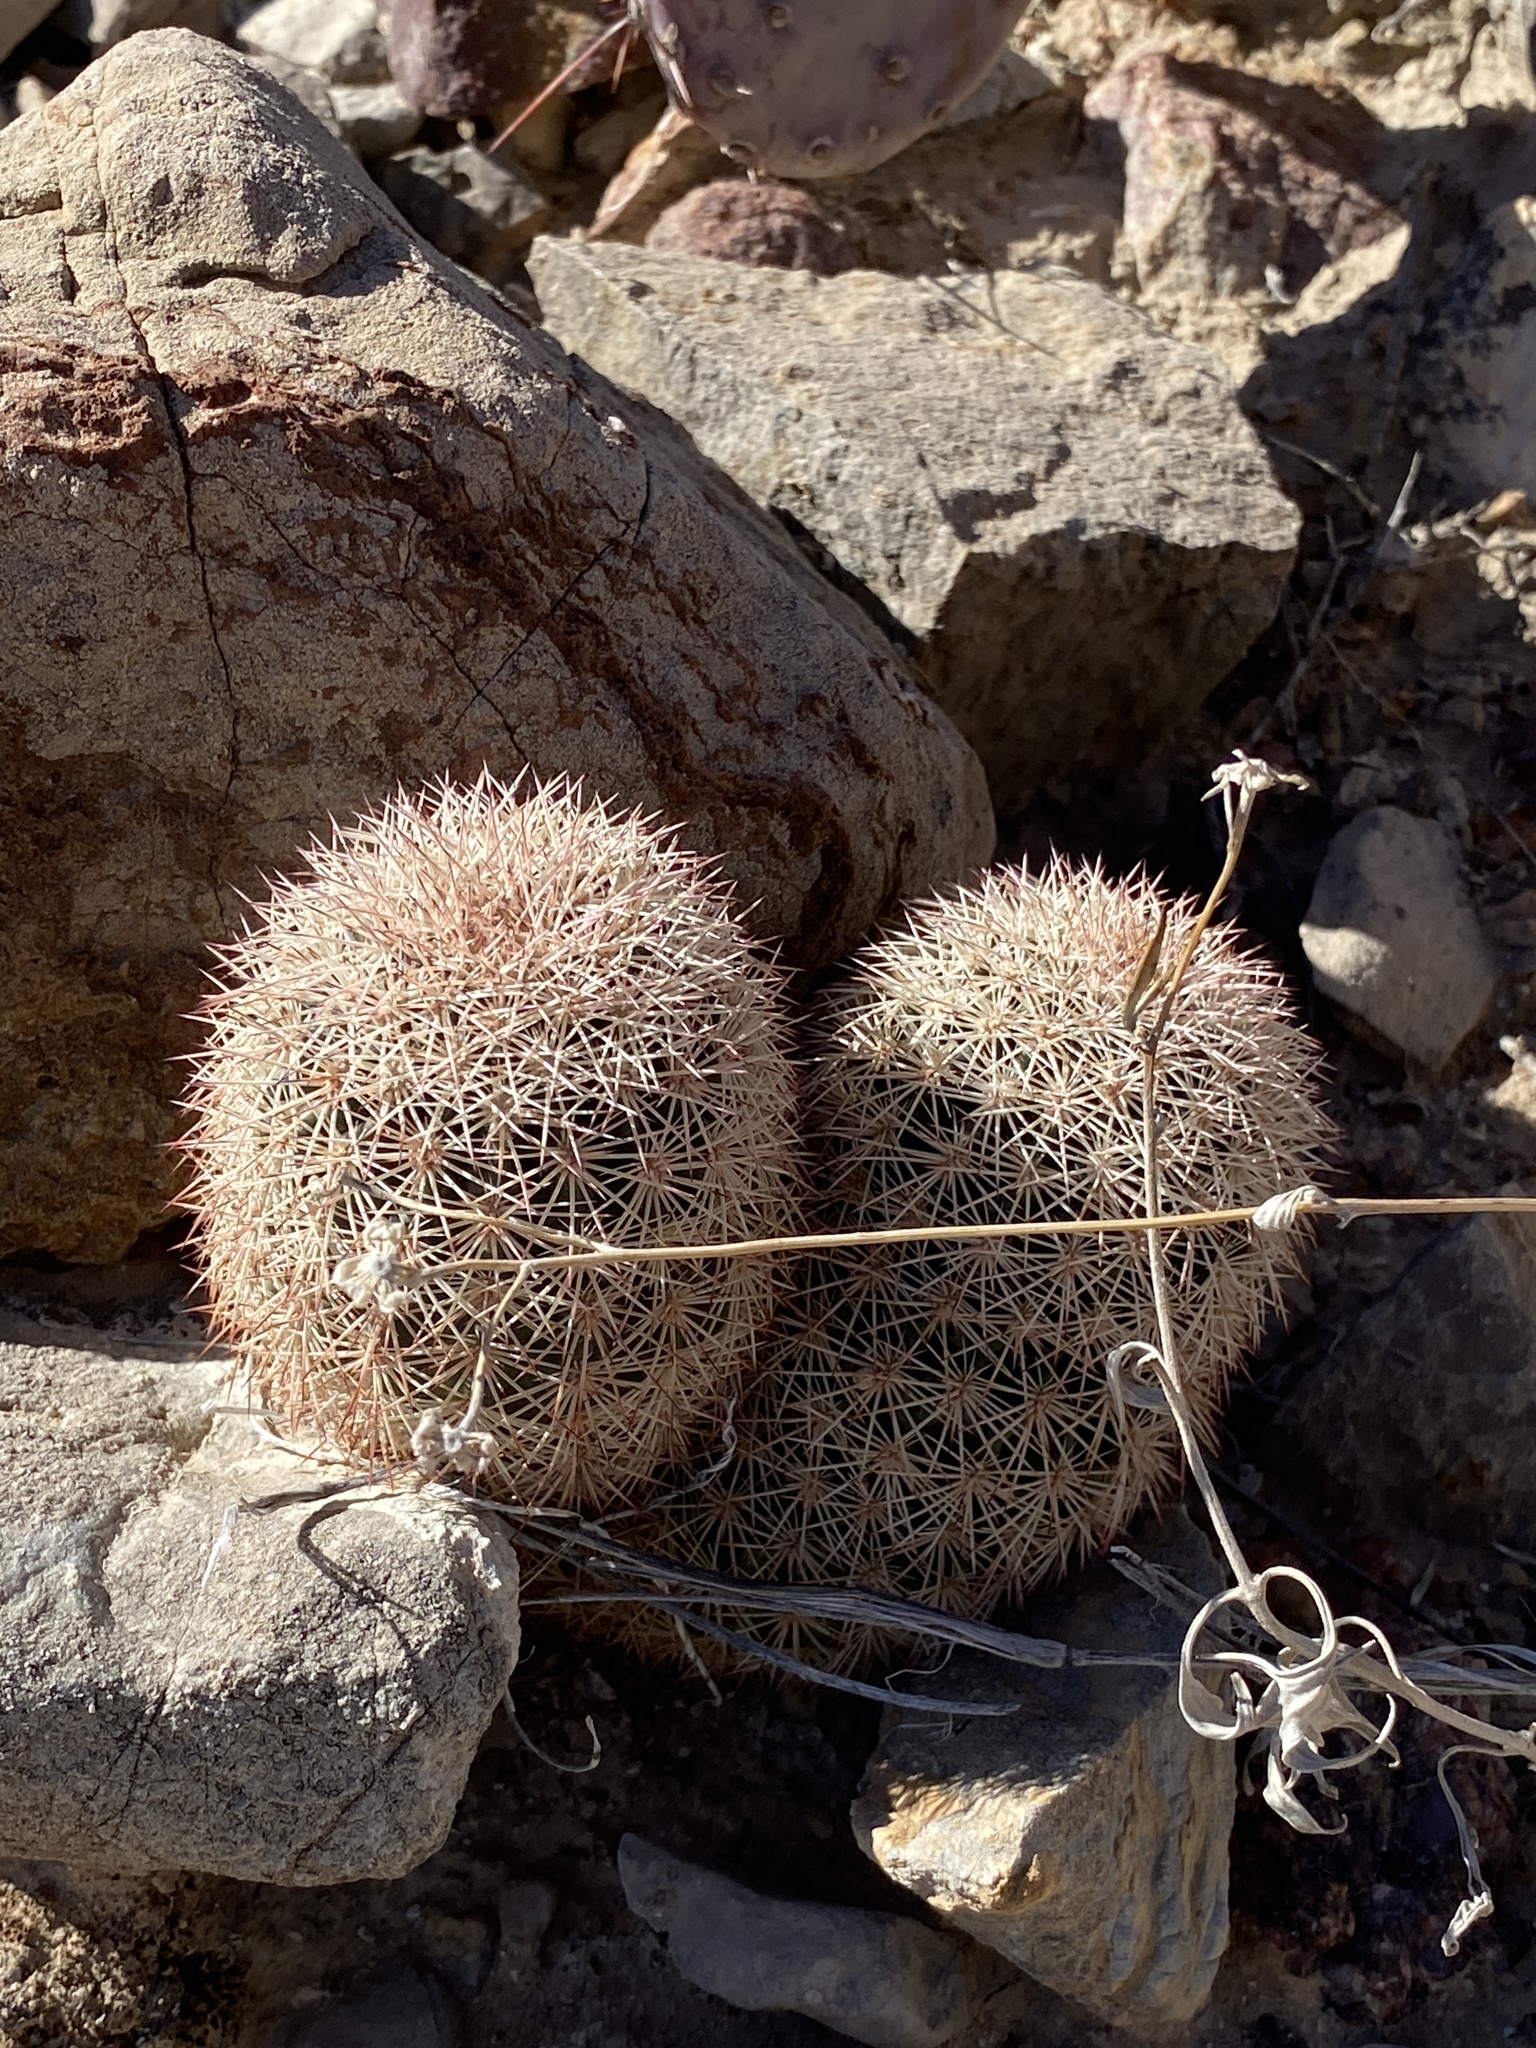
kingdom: Plantae
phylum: Tracheophyta
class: Magnoliopsida
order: Caryophyllales
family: Cactaceae
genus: Echinocereus
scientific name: Echinocereus dasyacanthus
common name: Spiny hedgehog cactus
